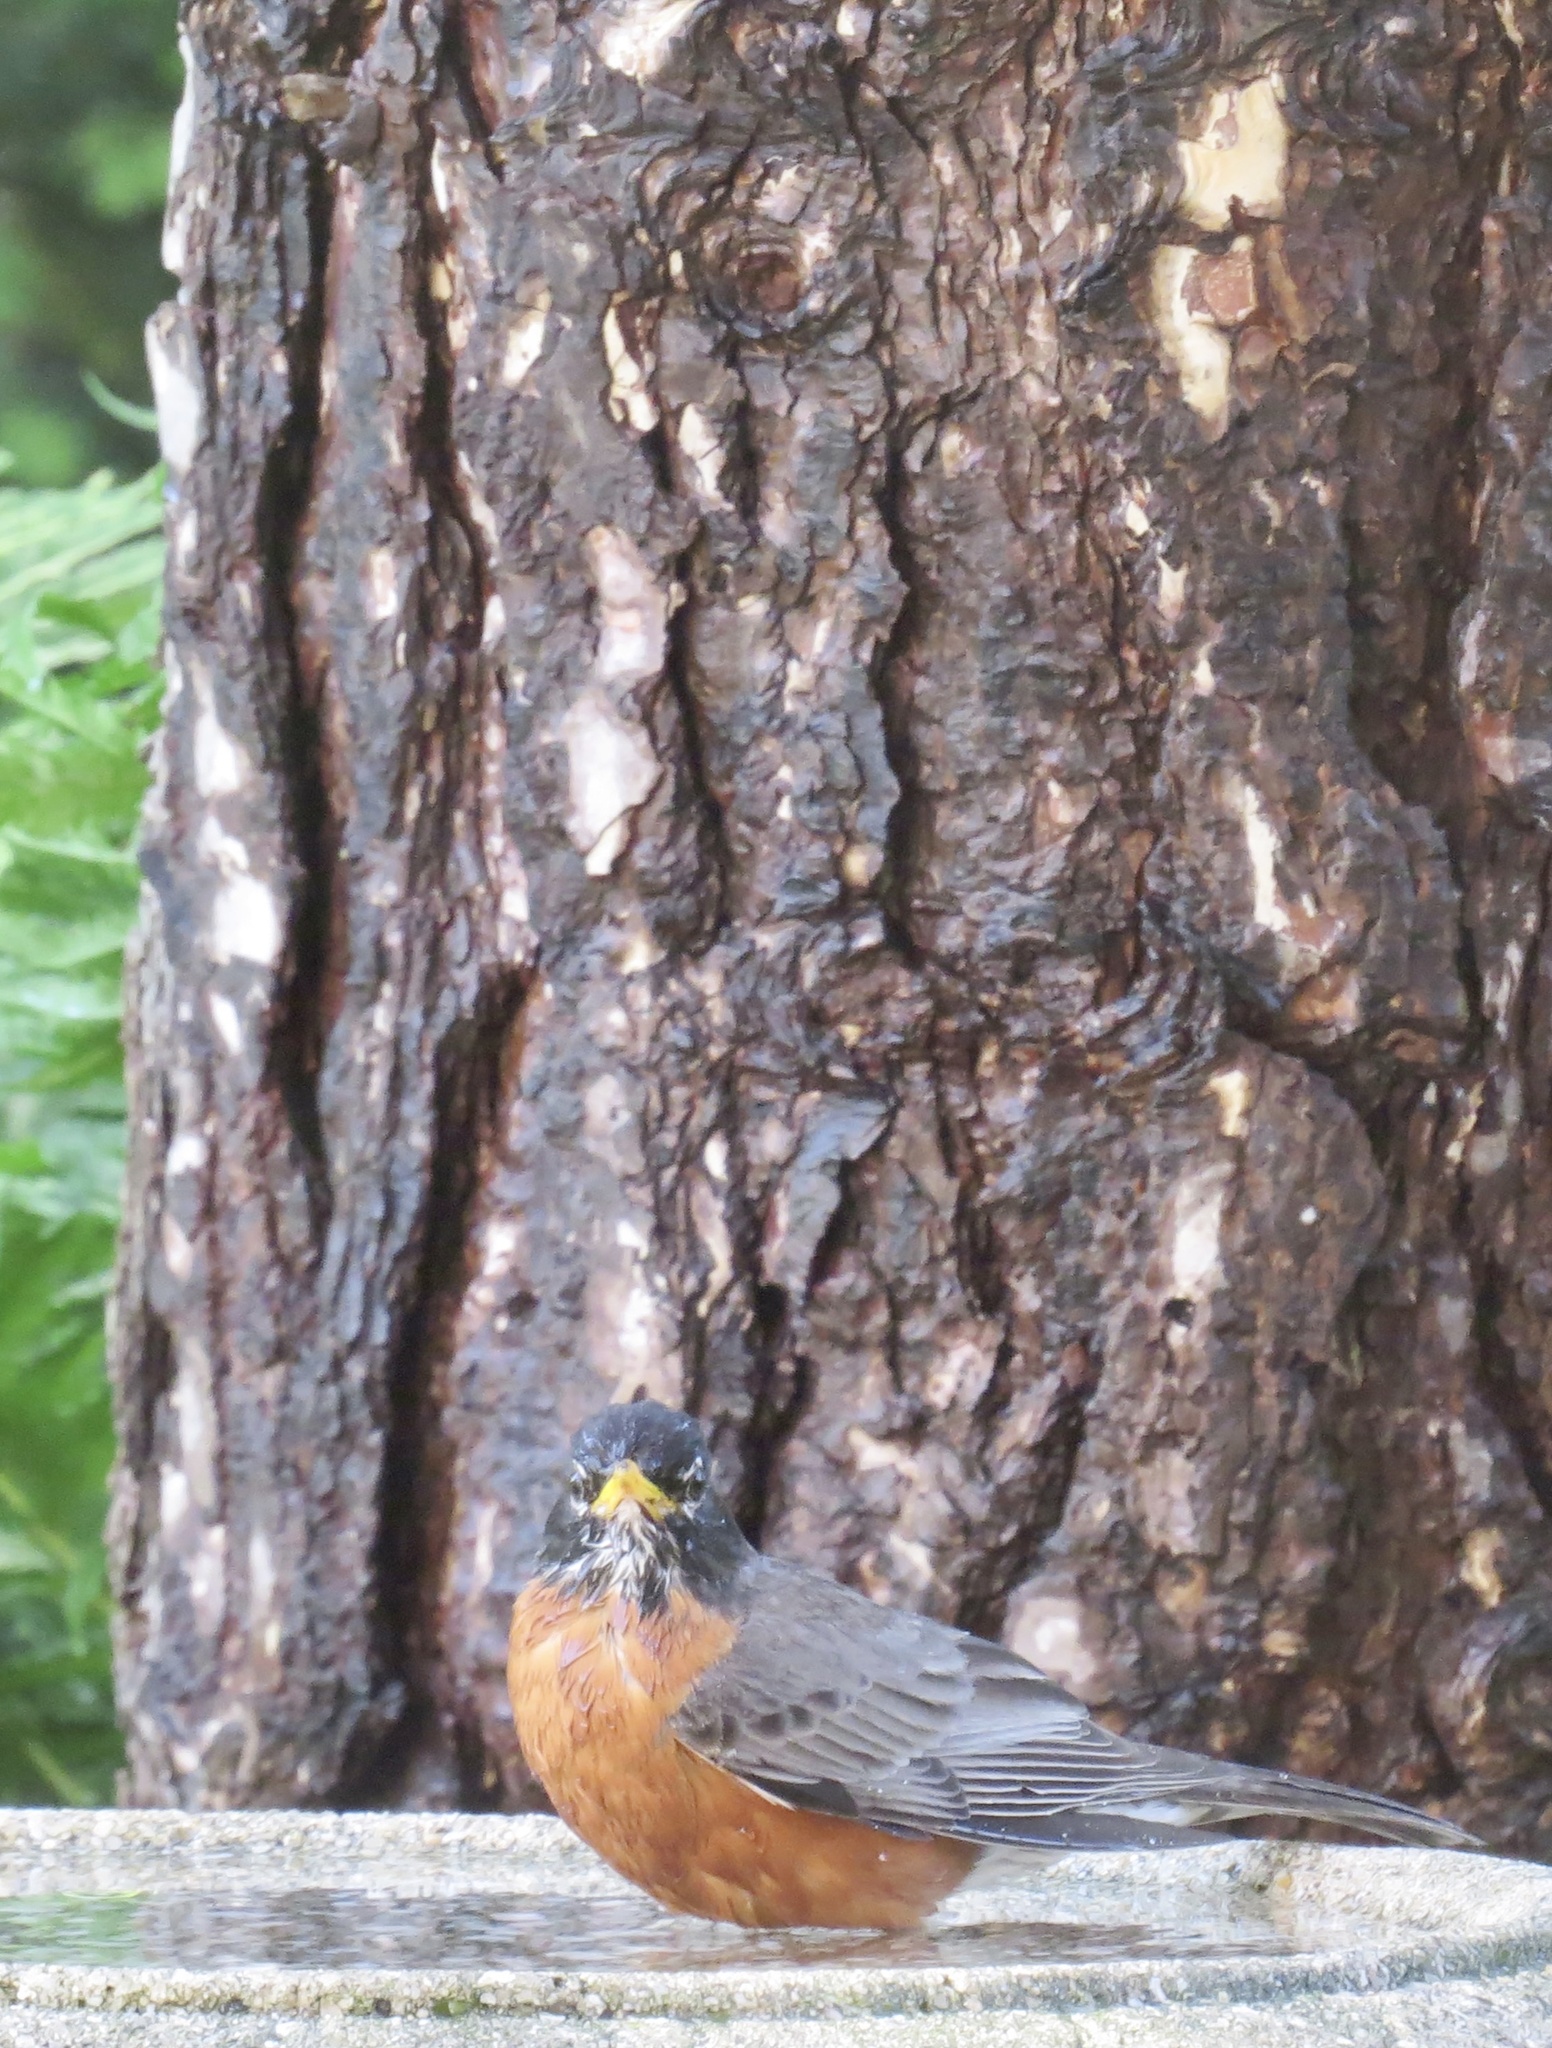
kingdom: Animalia
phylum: Chordata
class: Aves
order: Passeriformes
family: Turdidae
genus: Turdus
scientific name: Turdus migratorius
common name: American robin
